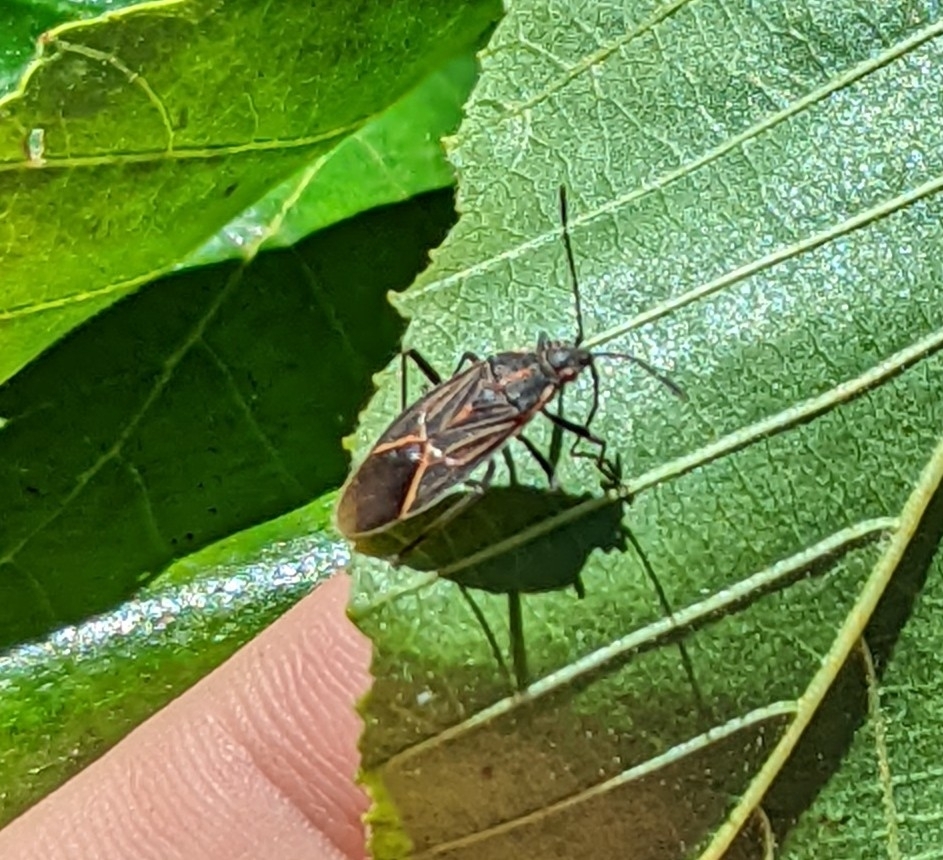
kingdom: Animalia
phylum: Arthropoda
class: Insecta
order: Hemiptera
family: Rhopalidae
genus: Boisea
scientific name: Boisea rubrolineata
